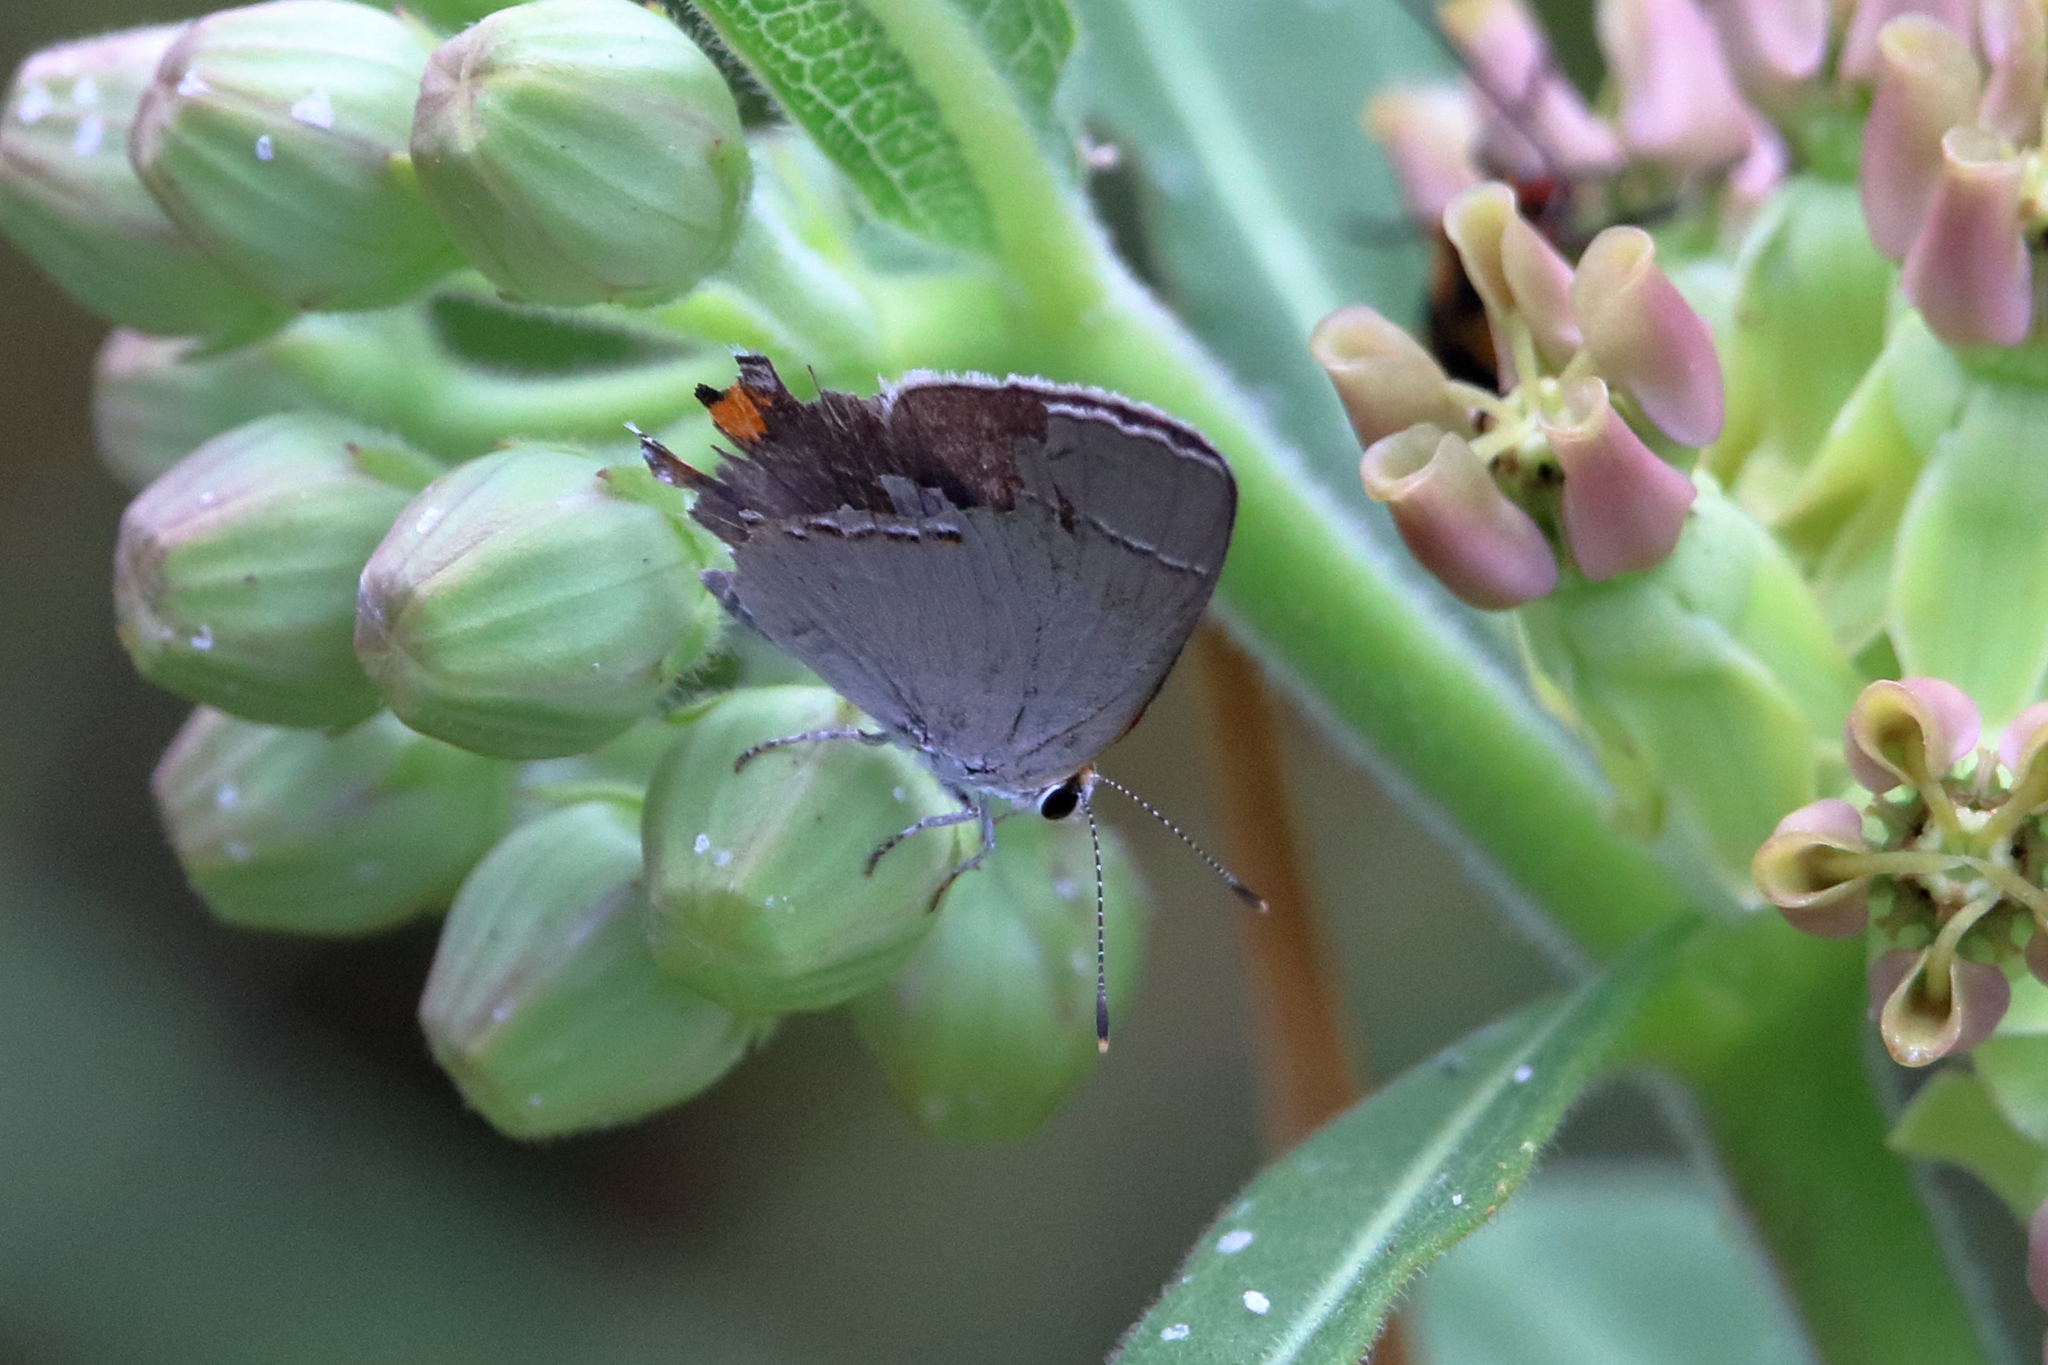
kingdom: Animalia
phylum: Arthropoda
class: Insecta
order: Lepidoptera
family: Lycaenidae
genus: Strymon
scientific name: Strymon melinus
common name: Gray hairstreak
